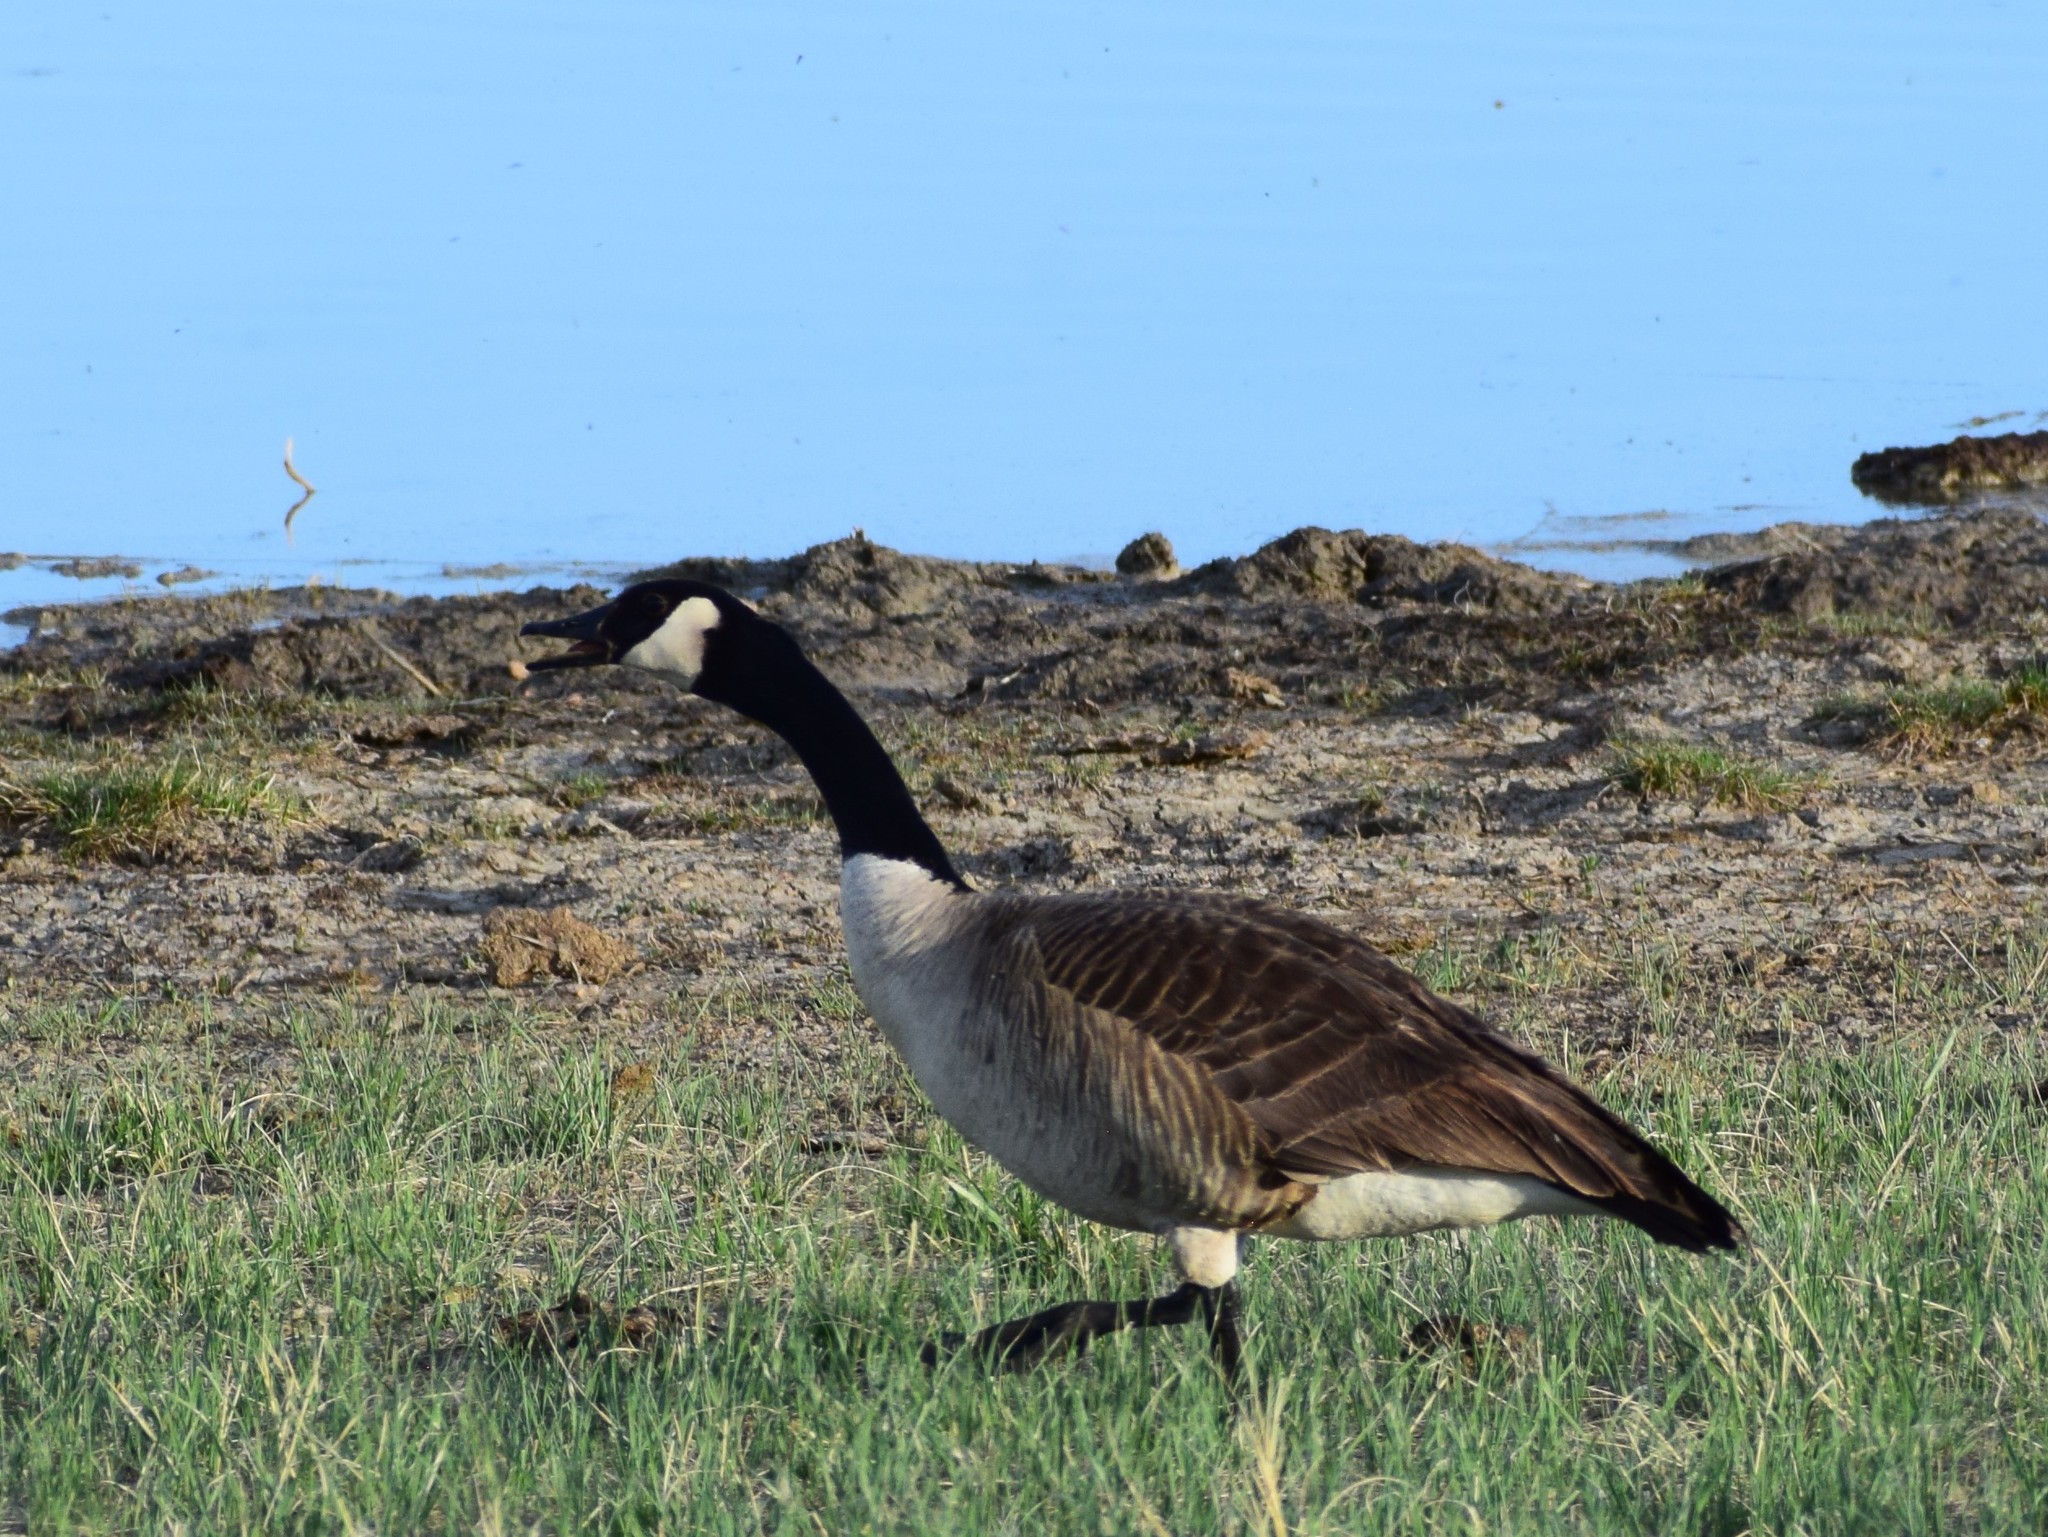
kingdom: Animalia
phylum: Chordata
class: Aves
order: Anseriformes
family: Anatidae
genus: Branta
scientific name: Branta canadensis
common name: Canada goose
